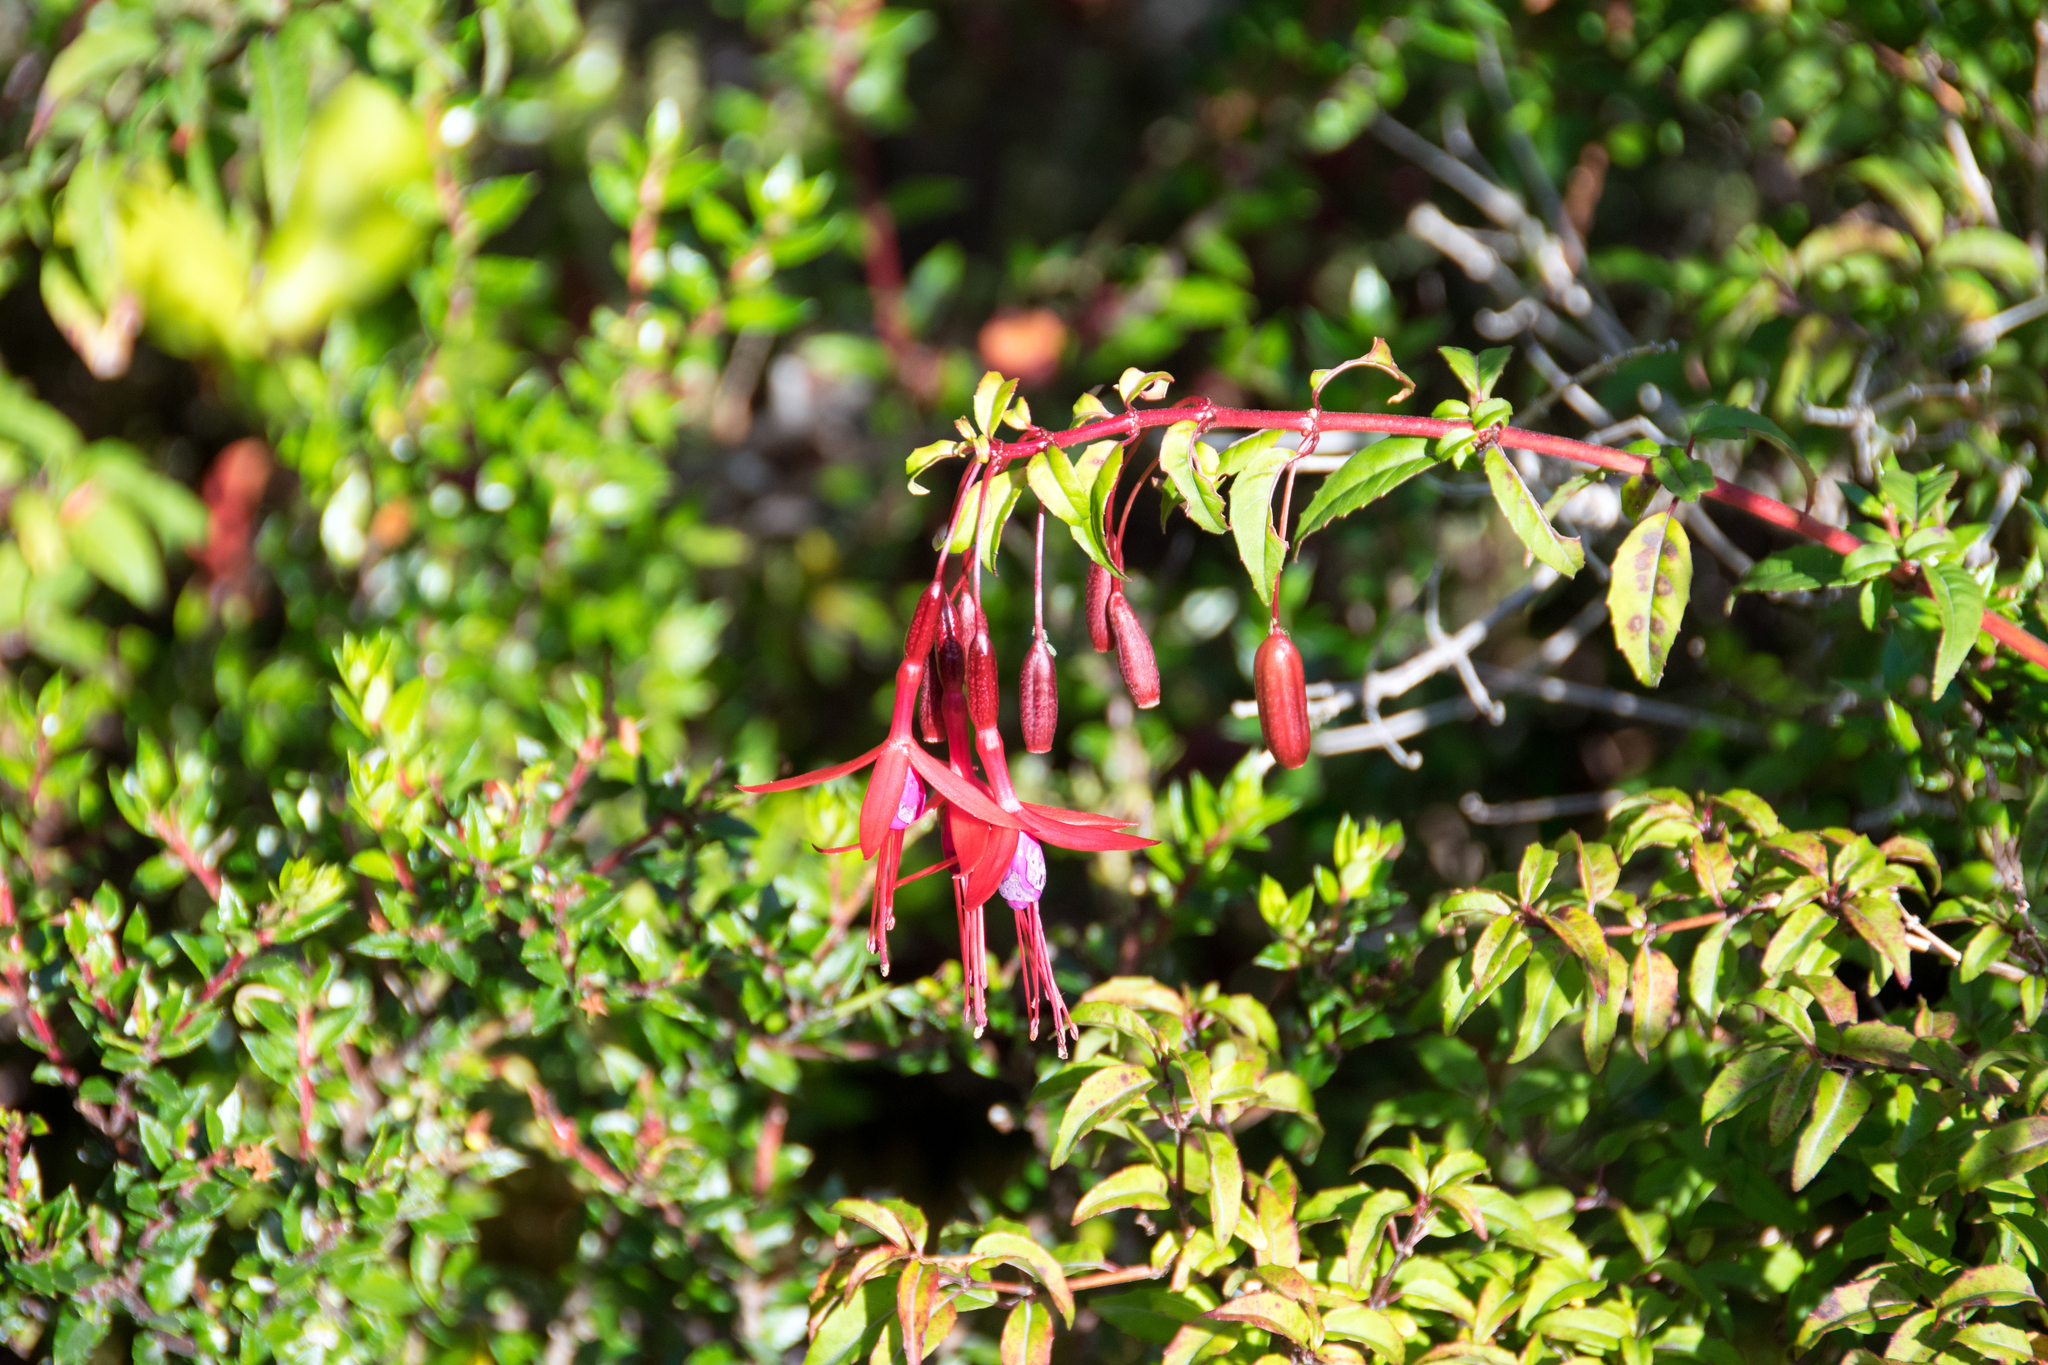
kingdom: Plantae
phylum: Tracheophyta
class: Magnoliopsida
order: Myrtales
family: Onagraceae
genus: Fuchsia
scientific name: Fuchsia magellanica
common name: Hardy fuchsia
